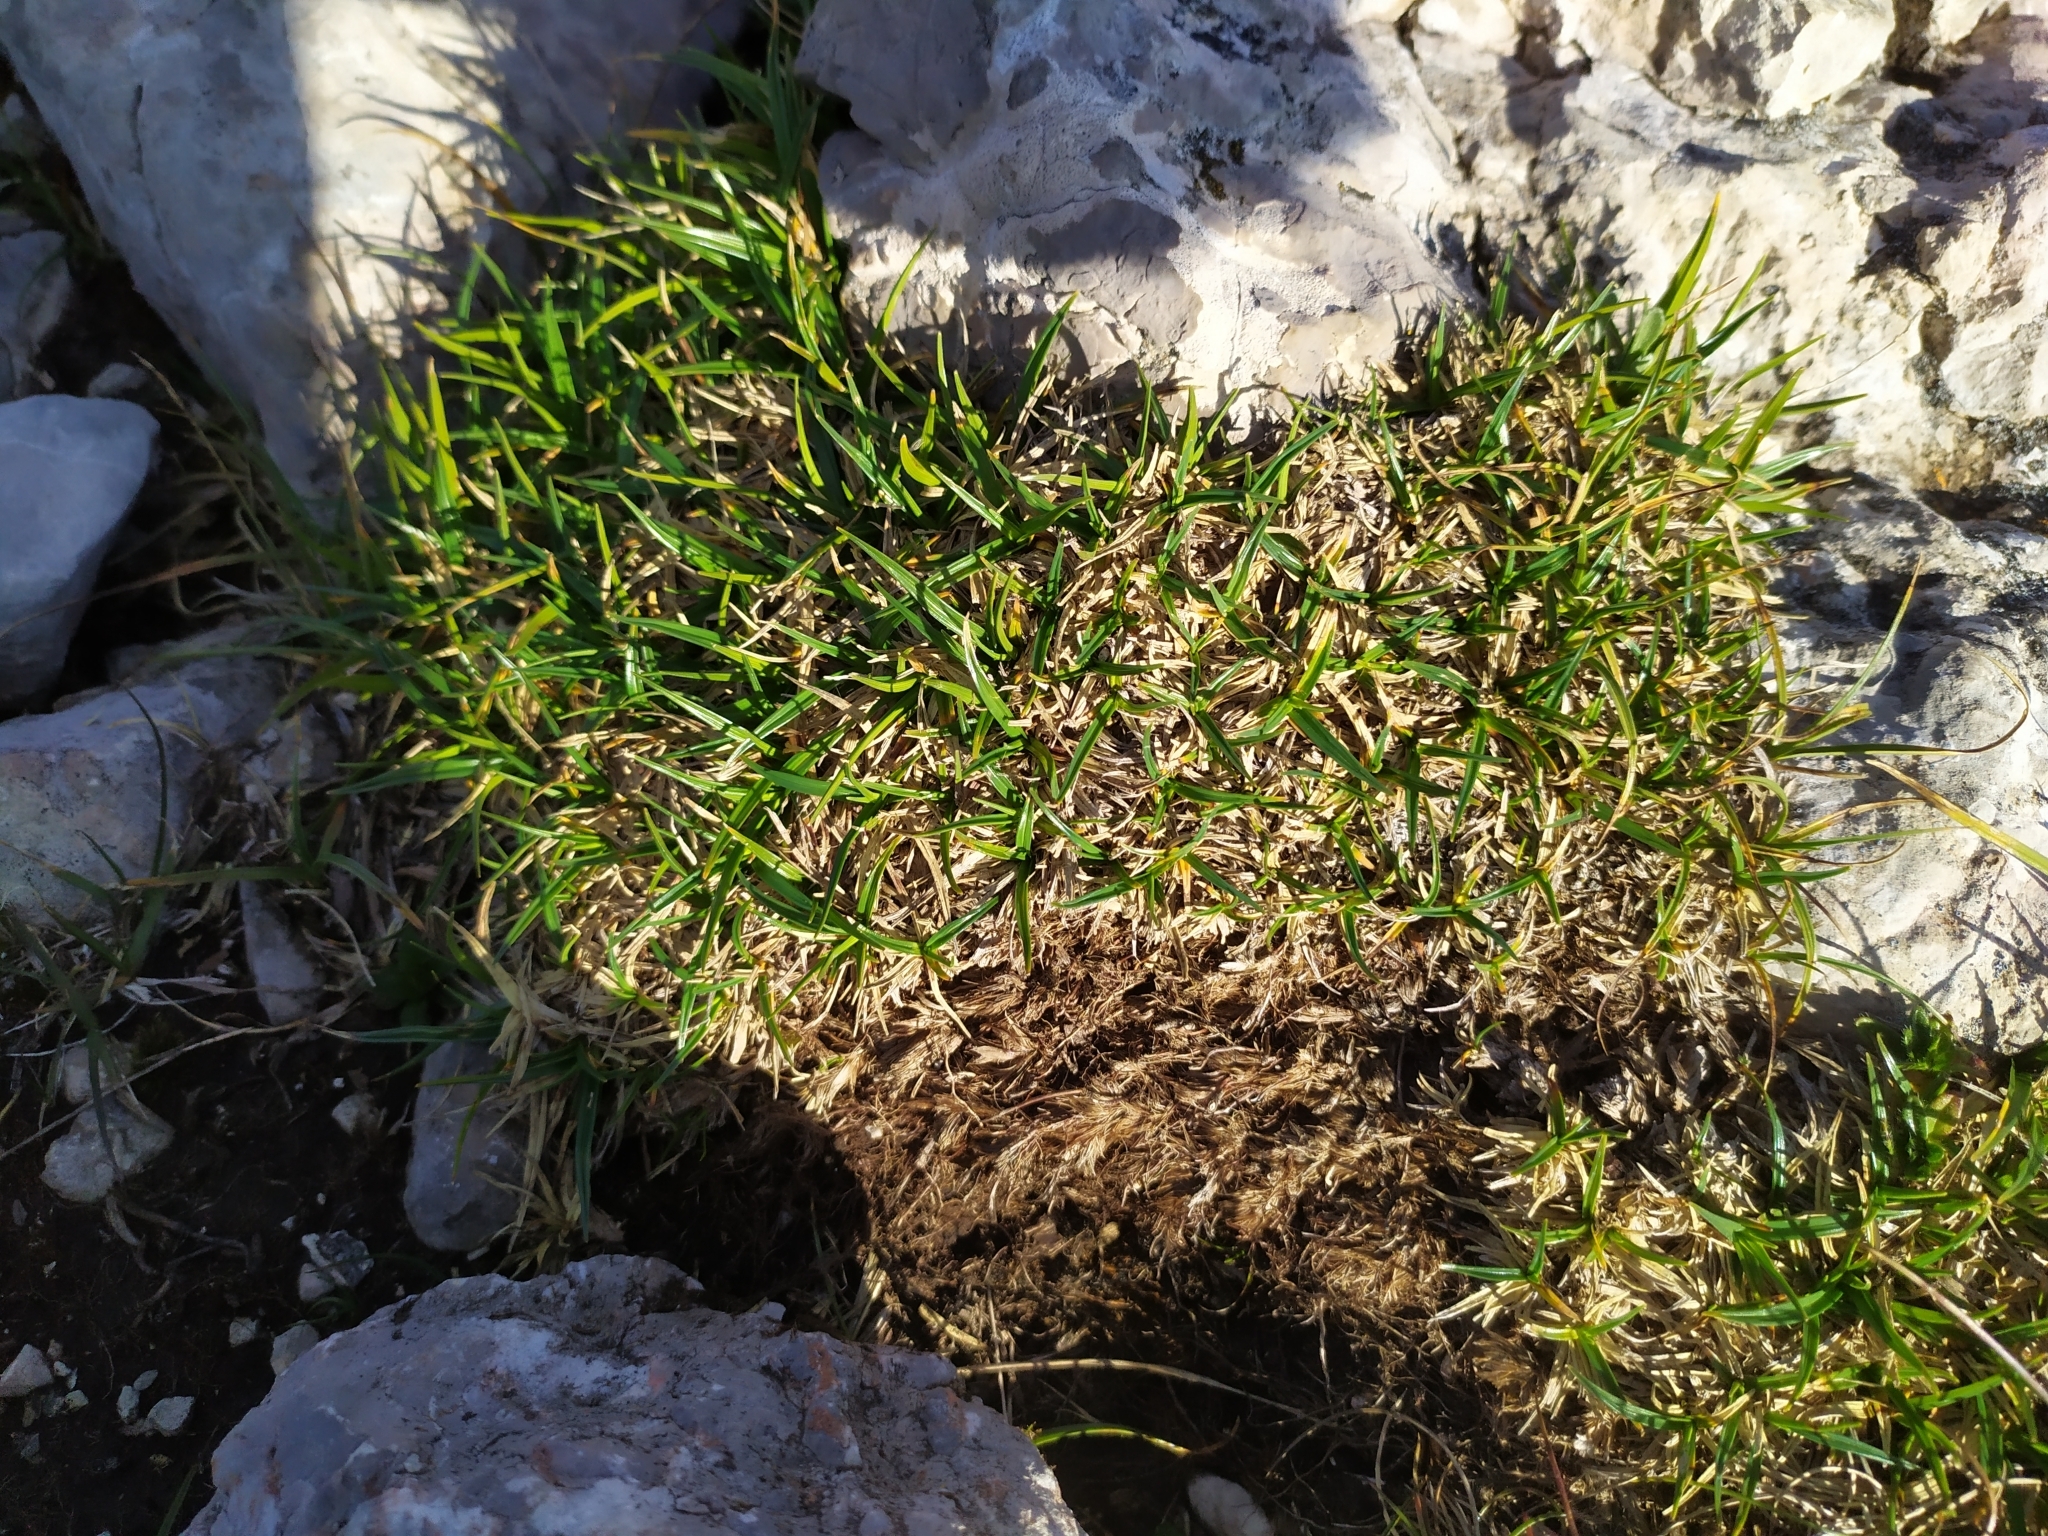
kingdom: Plantae
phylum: Tracheophyta
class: Liliopsida
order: Poales
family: Cyperaceae
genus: Carex
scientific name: Carex firma
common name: Dwarf pillow sedge
